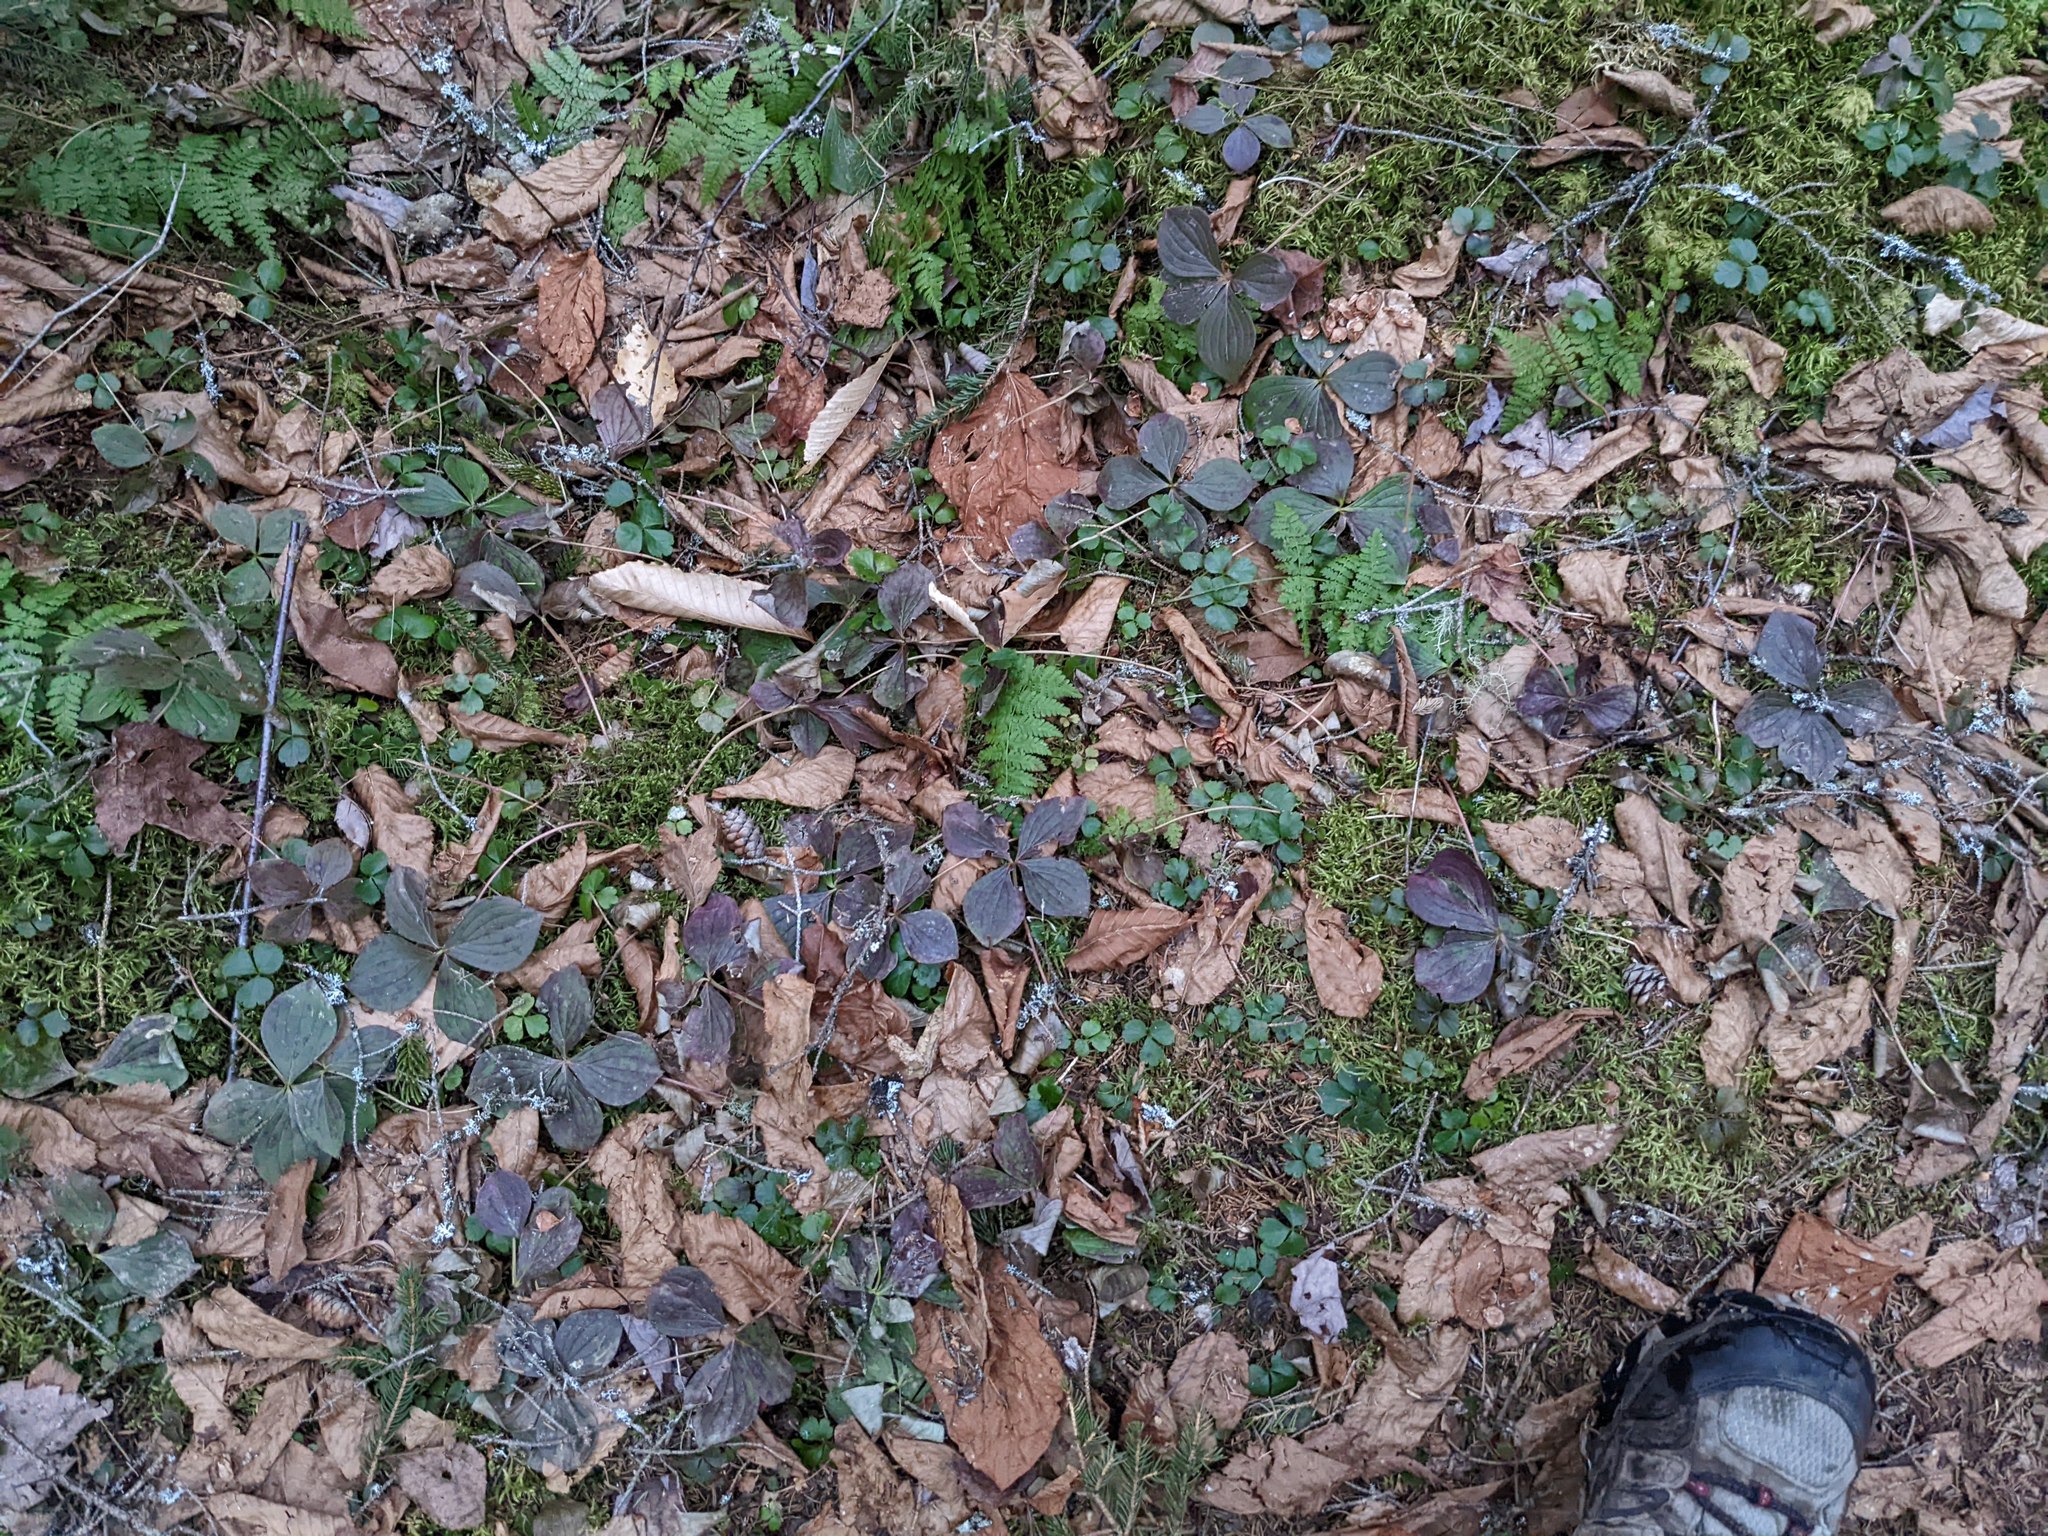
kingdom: Plantae
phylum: Tracheophyta
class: Magnoliopsida
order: Ranunculales
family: Ranunculaceae
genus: Coptis
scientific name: Coptis trifolia
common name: Canker-root
